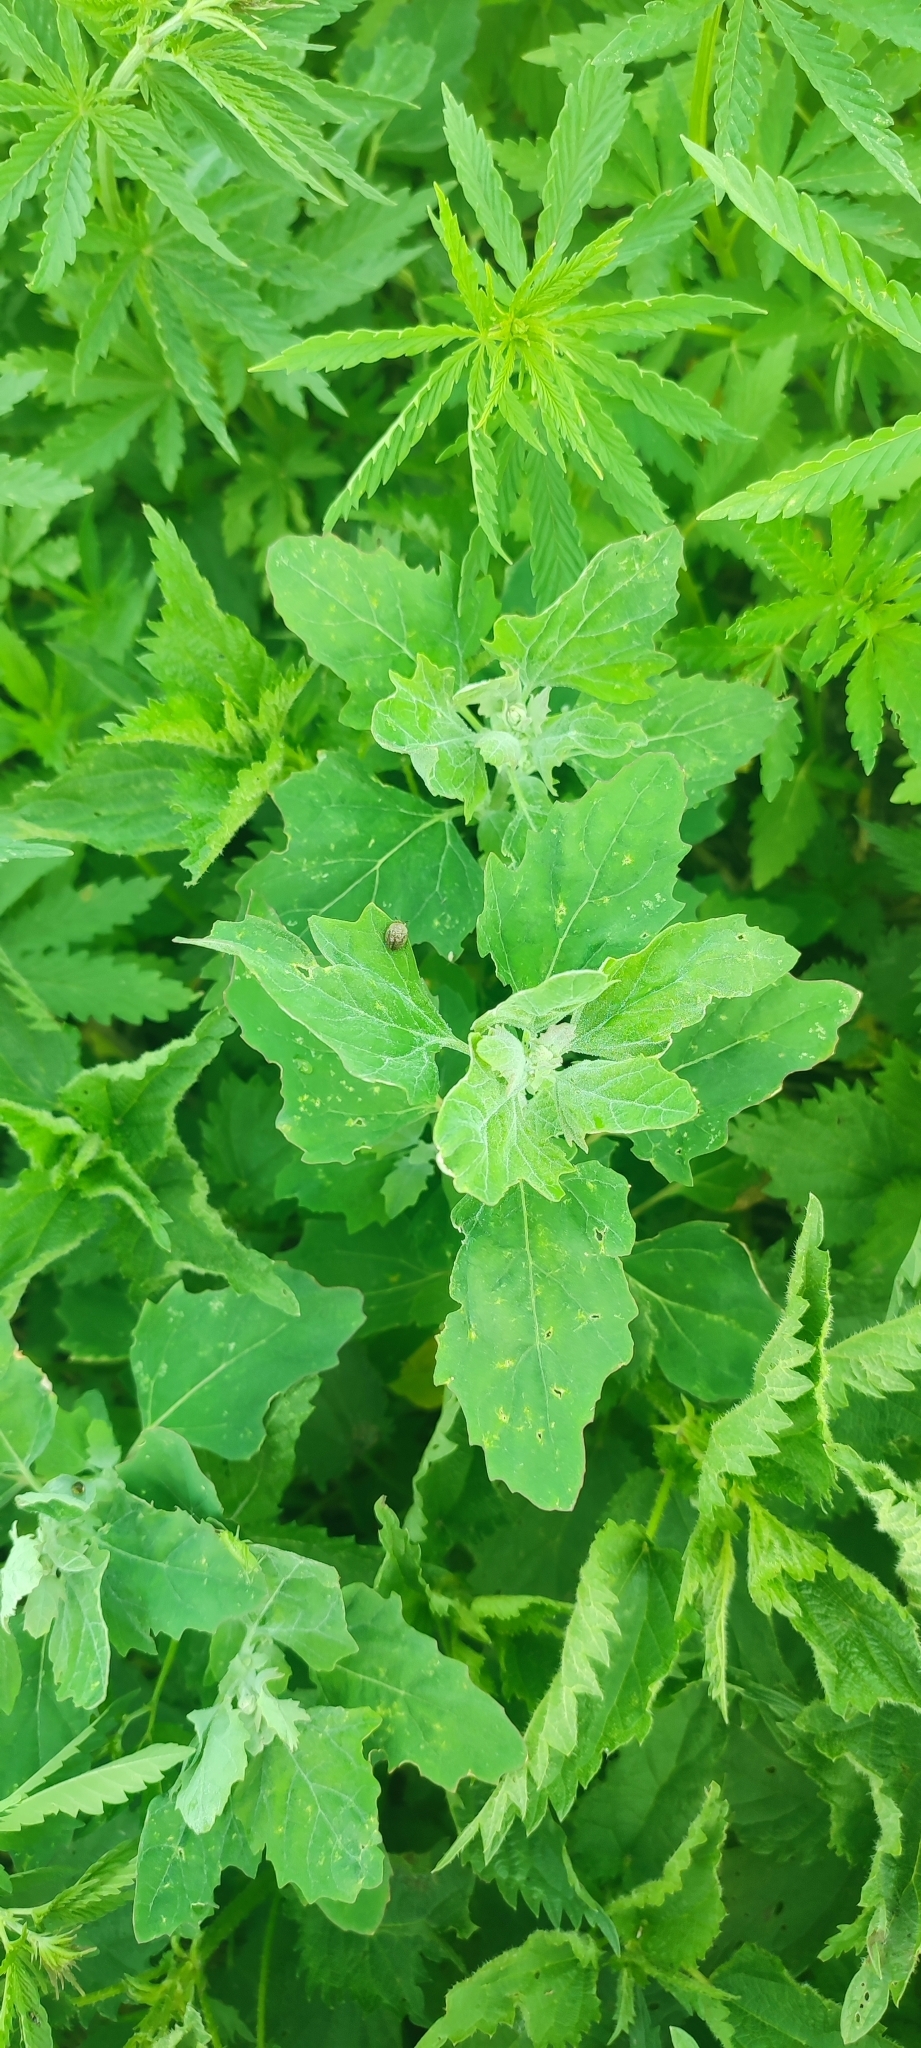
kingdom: Plantae
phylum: Tracheophyta
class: Magnoliopsida
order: Caryophyllales
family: Amaranthaceae
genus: Chenopodium
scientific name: Chenopodium album
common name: Fat-hen
